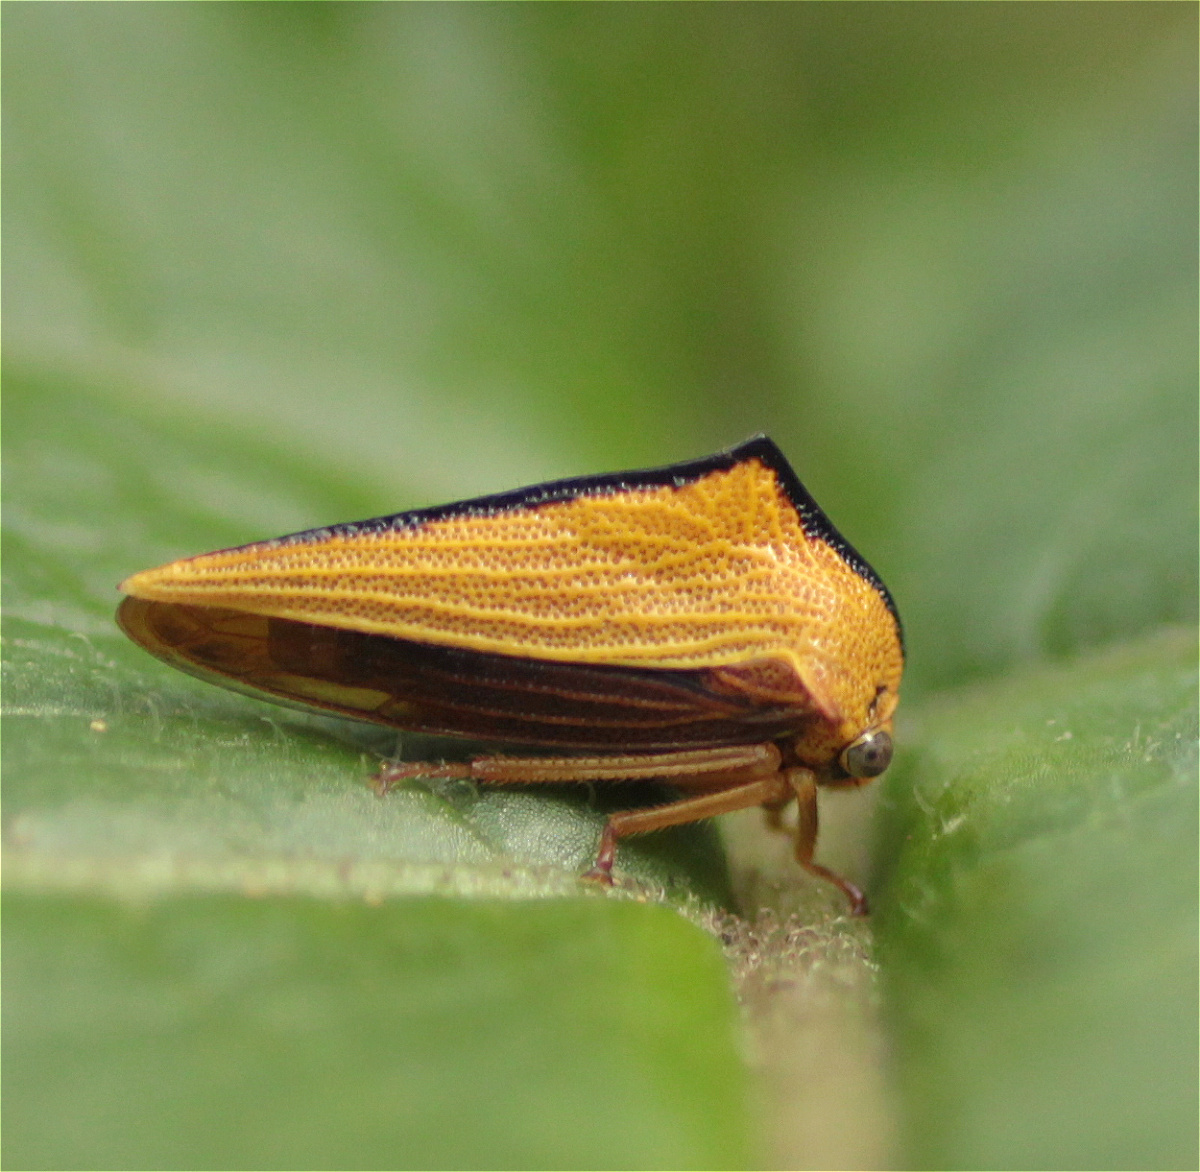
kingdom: Animalia
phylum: Arthropoda
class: Insecta
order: Hemiptera
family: Membracidae
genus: Ennya
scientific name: Ennya sobria
